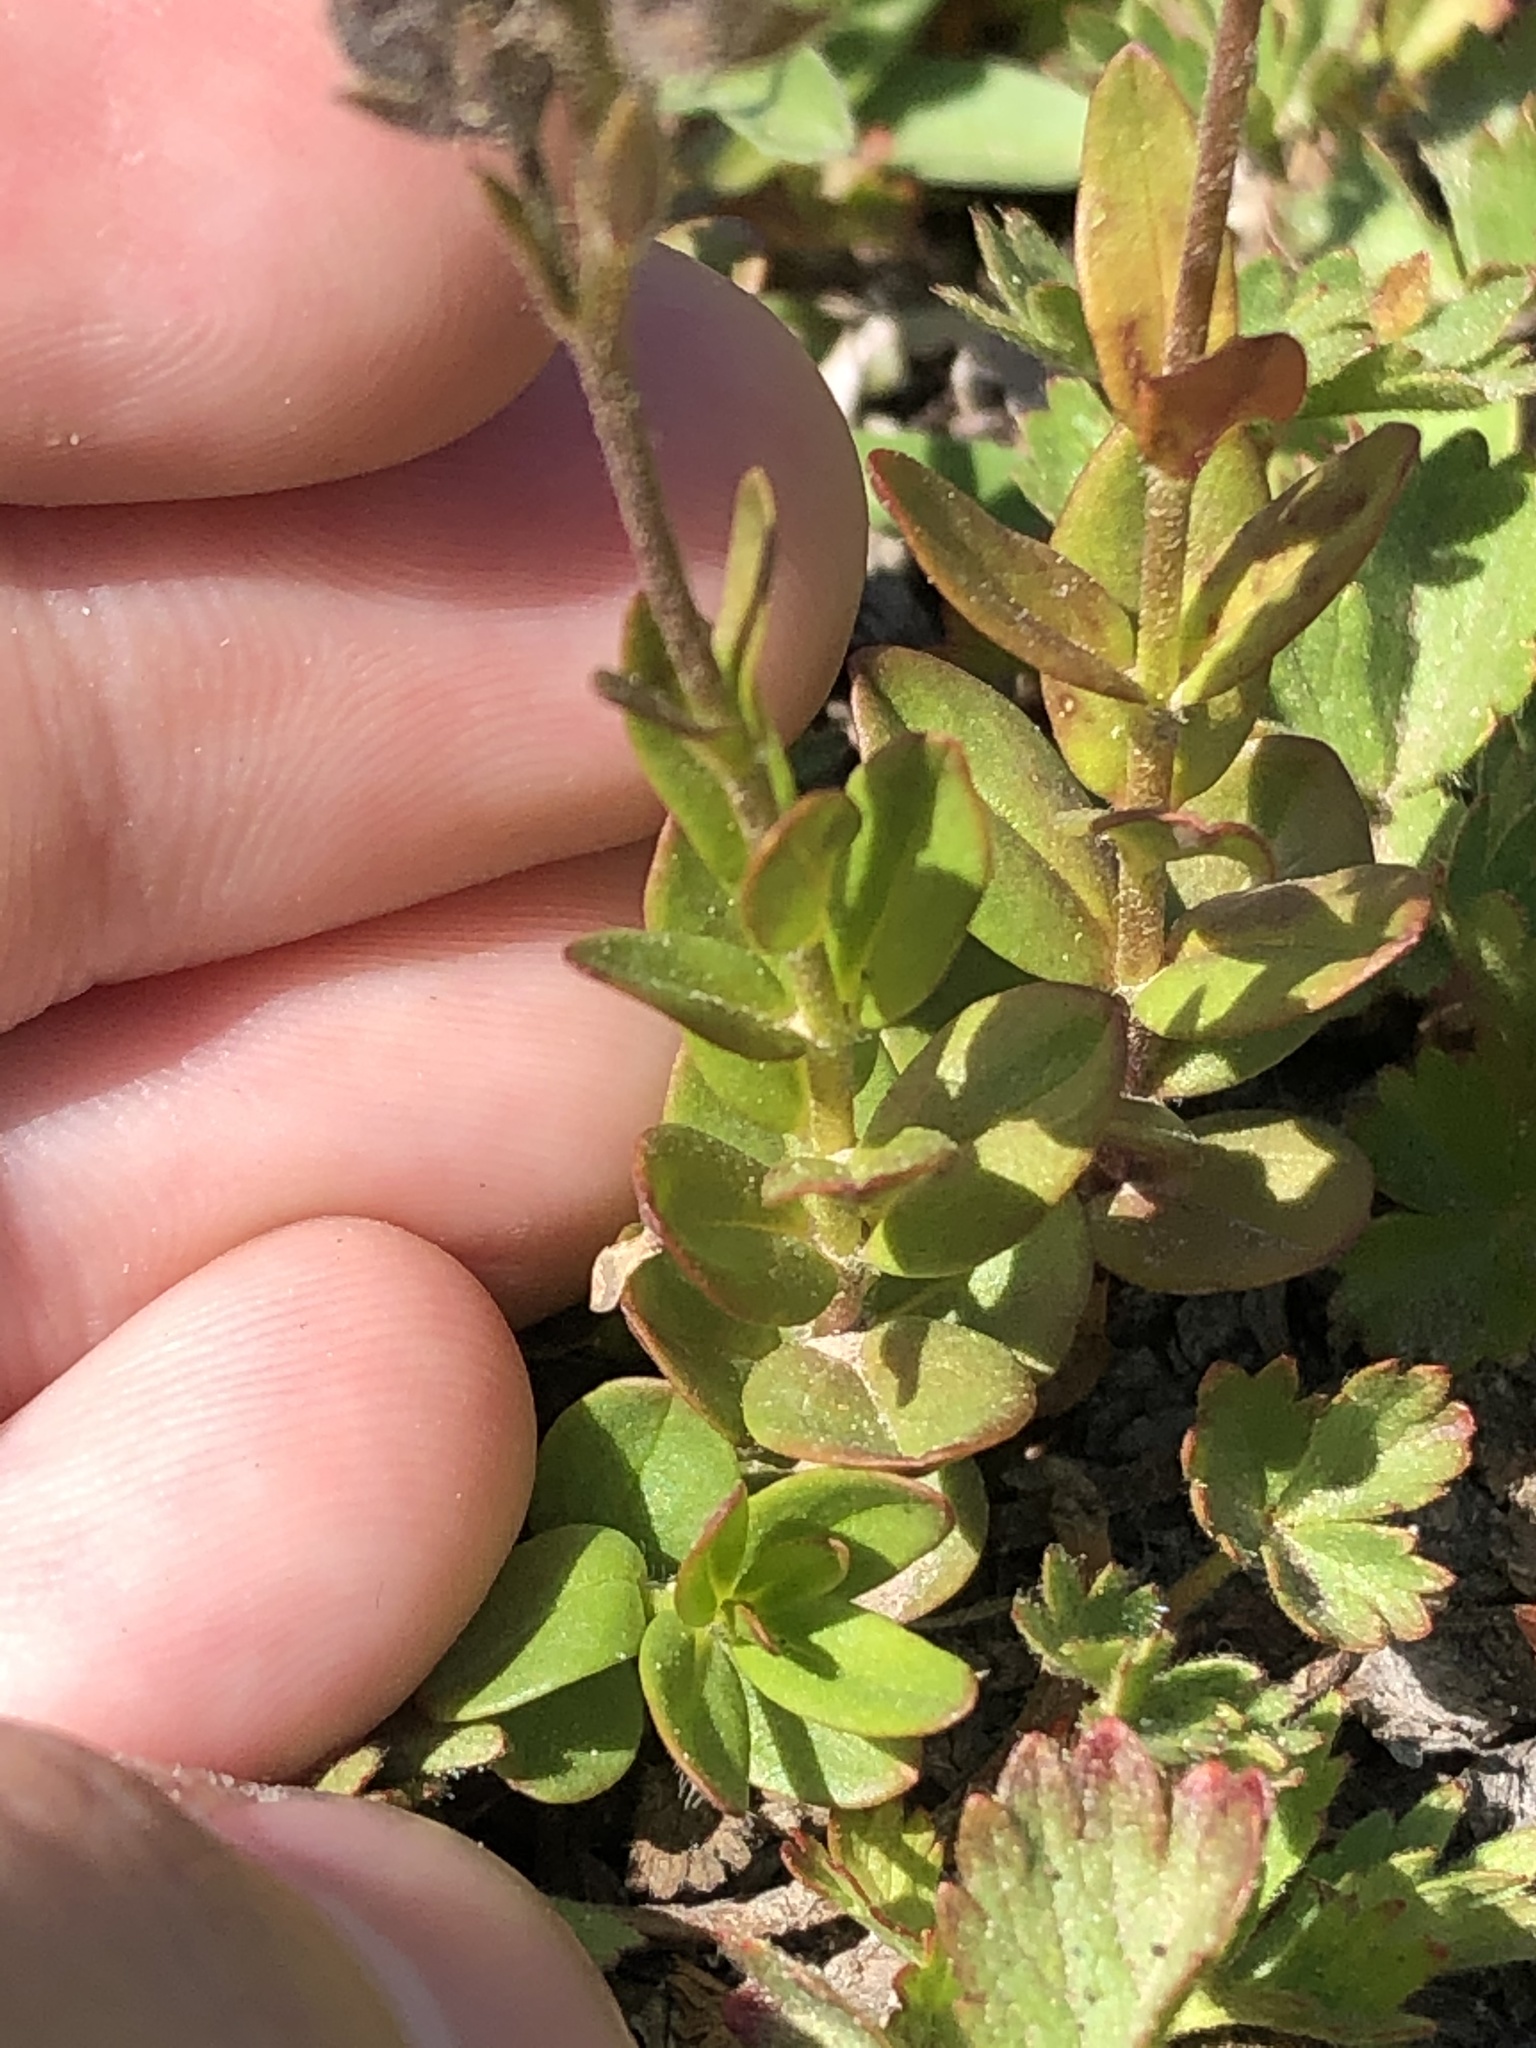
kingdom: Plantae
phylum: Tracheophyta
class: Magnoliopsida
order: Lamiales
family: Plantaginaceae
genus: Veronica
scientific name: Veronica cusickii
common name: Cusick's speedwell
